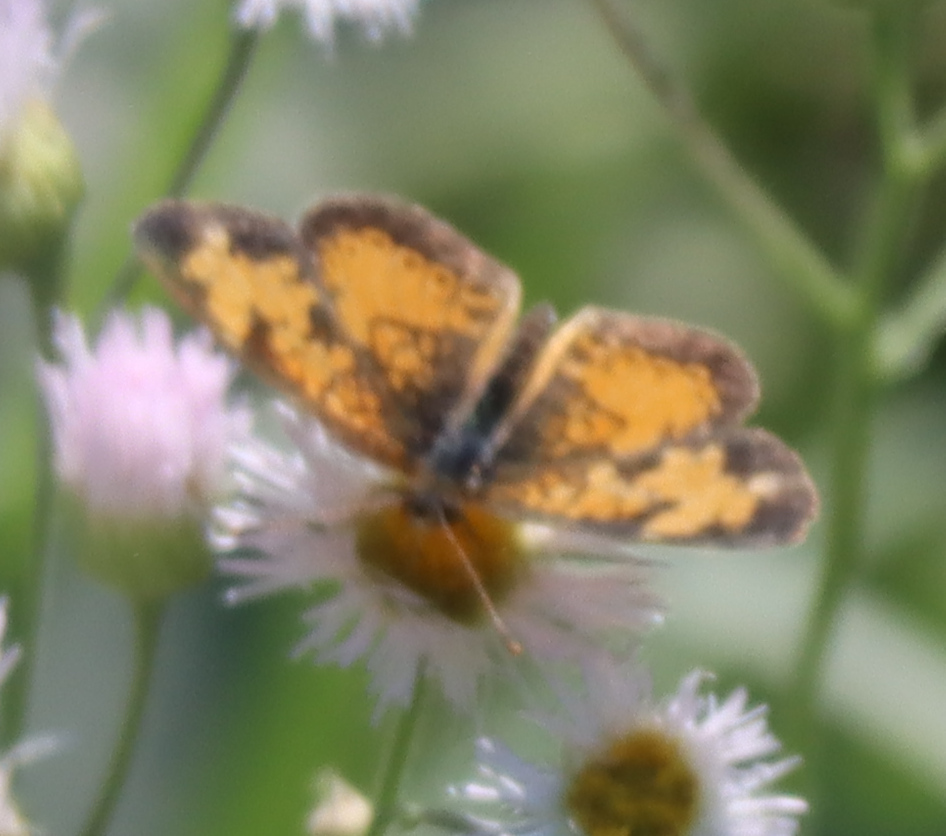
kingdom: Animalia
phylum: Arthropoda
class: Insecta
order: Lepidoptera
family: Nymphalidae
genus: Phyciodes
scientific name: Phyciodes tharos
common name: Pearl crescent
